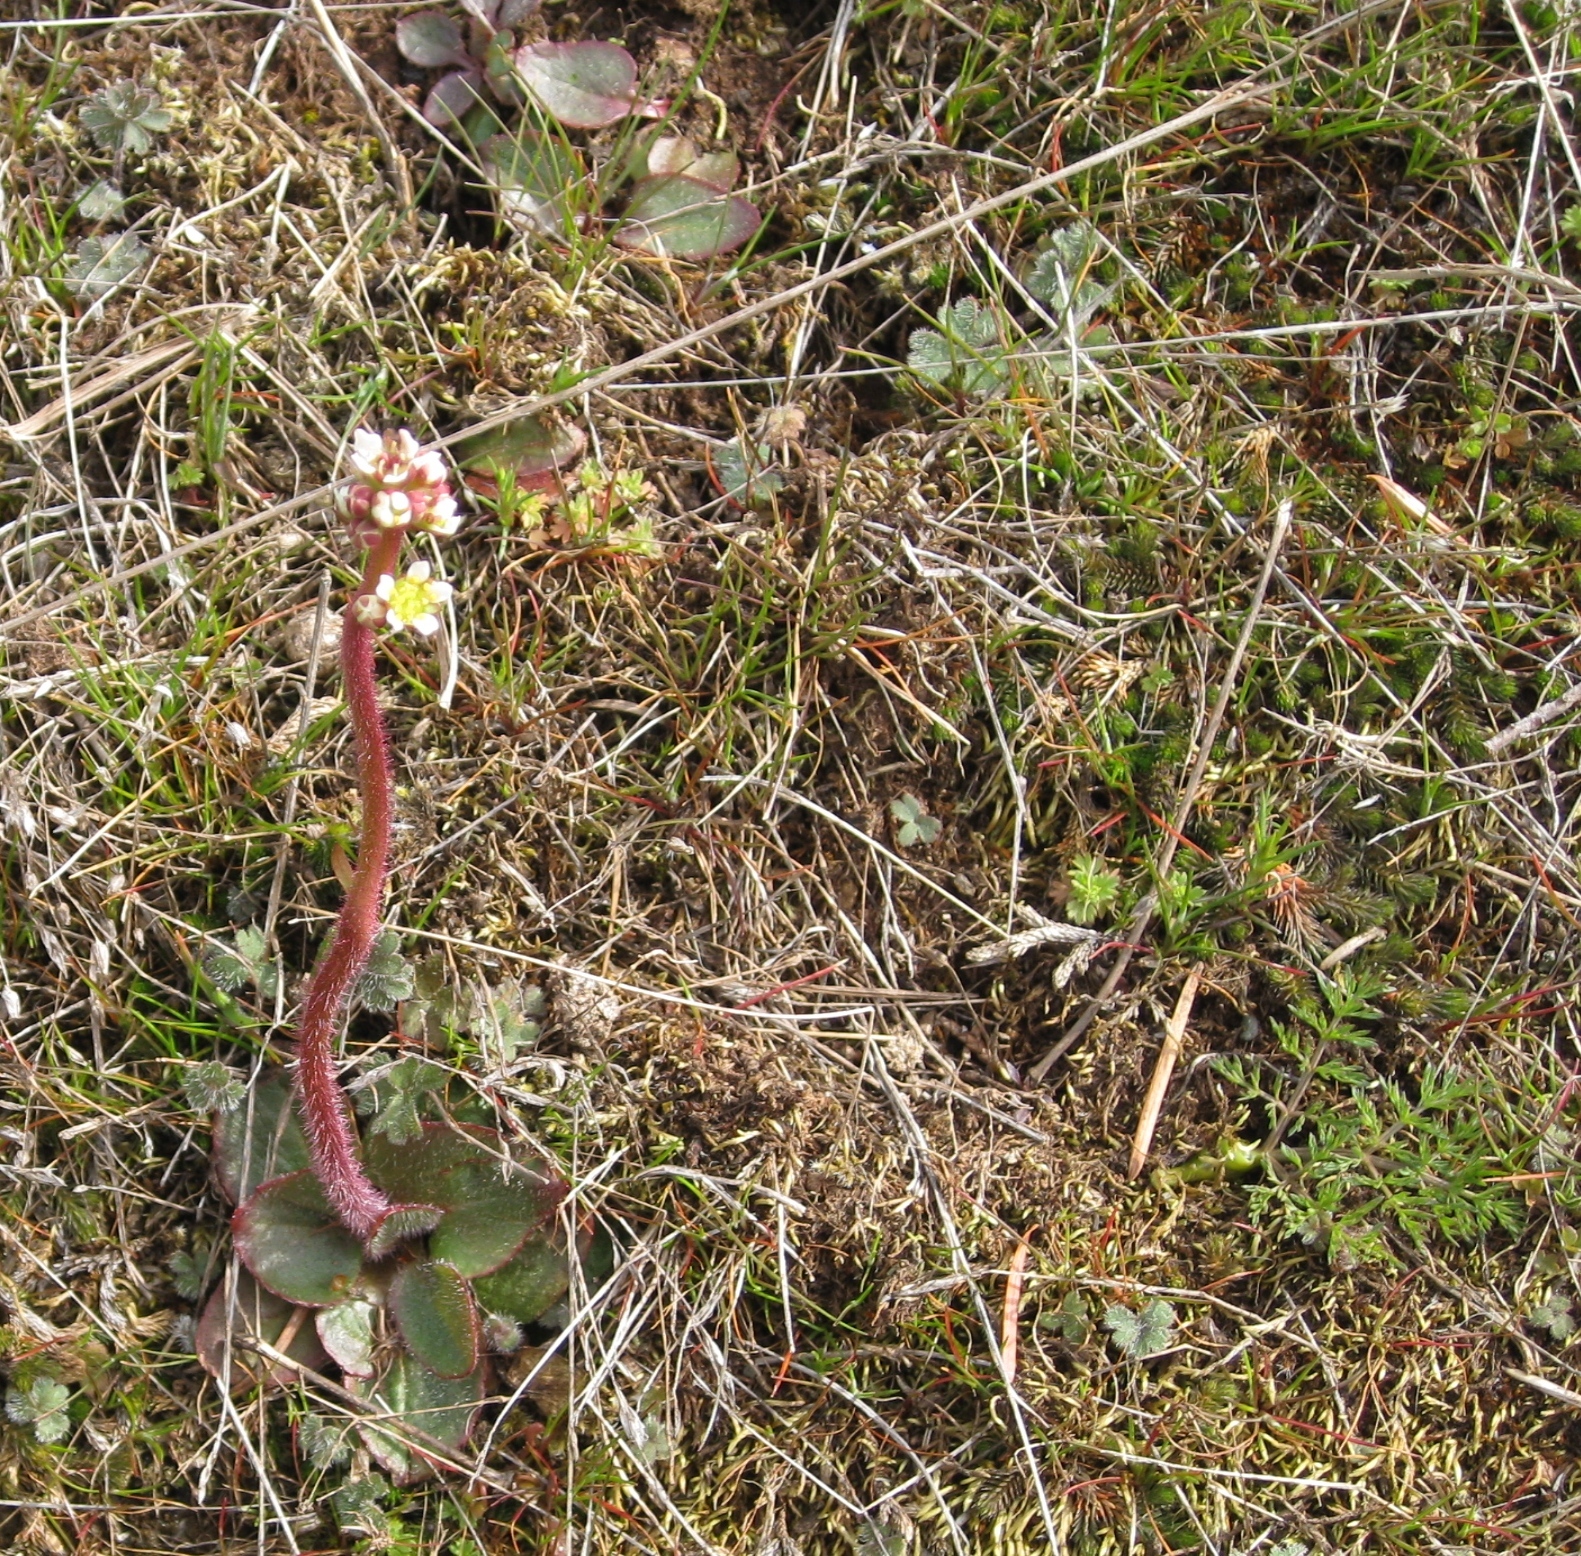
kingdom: Plantae
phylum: Tracheophyta
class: Magnoliopsida
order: Saxifragales
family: Saxifragaceae
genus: Micranthes
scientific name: Micranthes integrifolia
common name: Wholeleaf saxifrage
